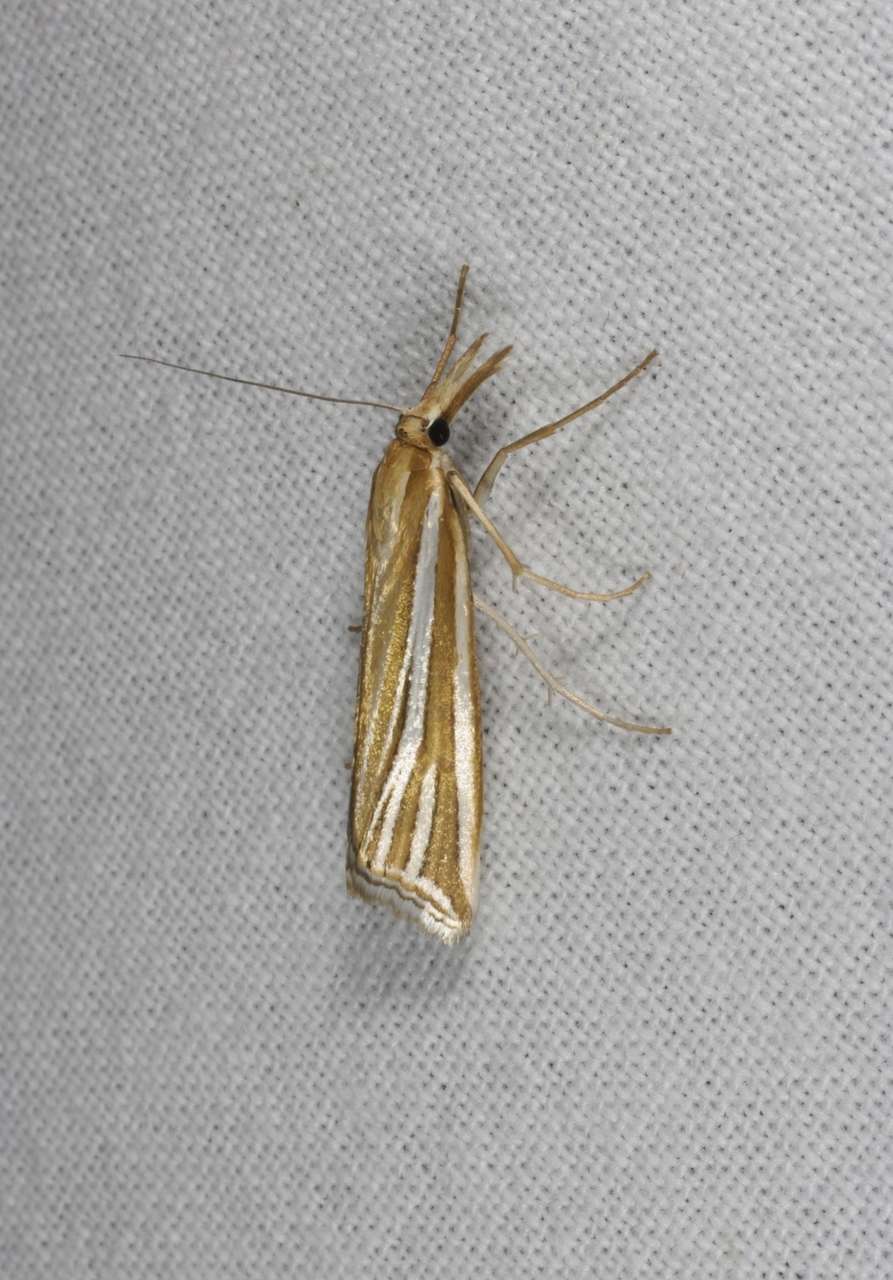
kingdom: Animalia
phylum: Arthropoda
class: Insecta
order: Lepidoptera
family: Crambidae
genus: Hednota
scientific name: Hednota relatalis
